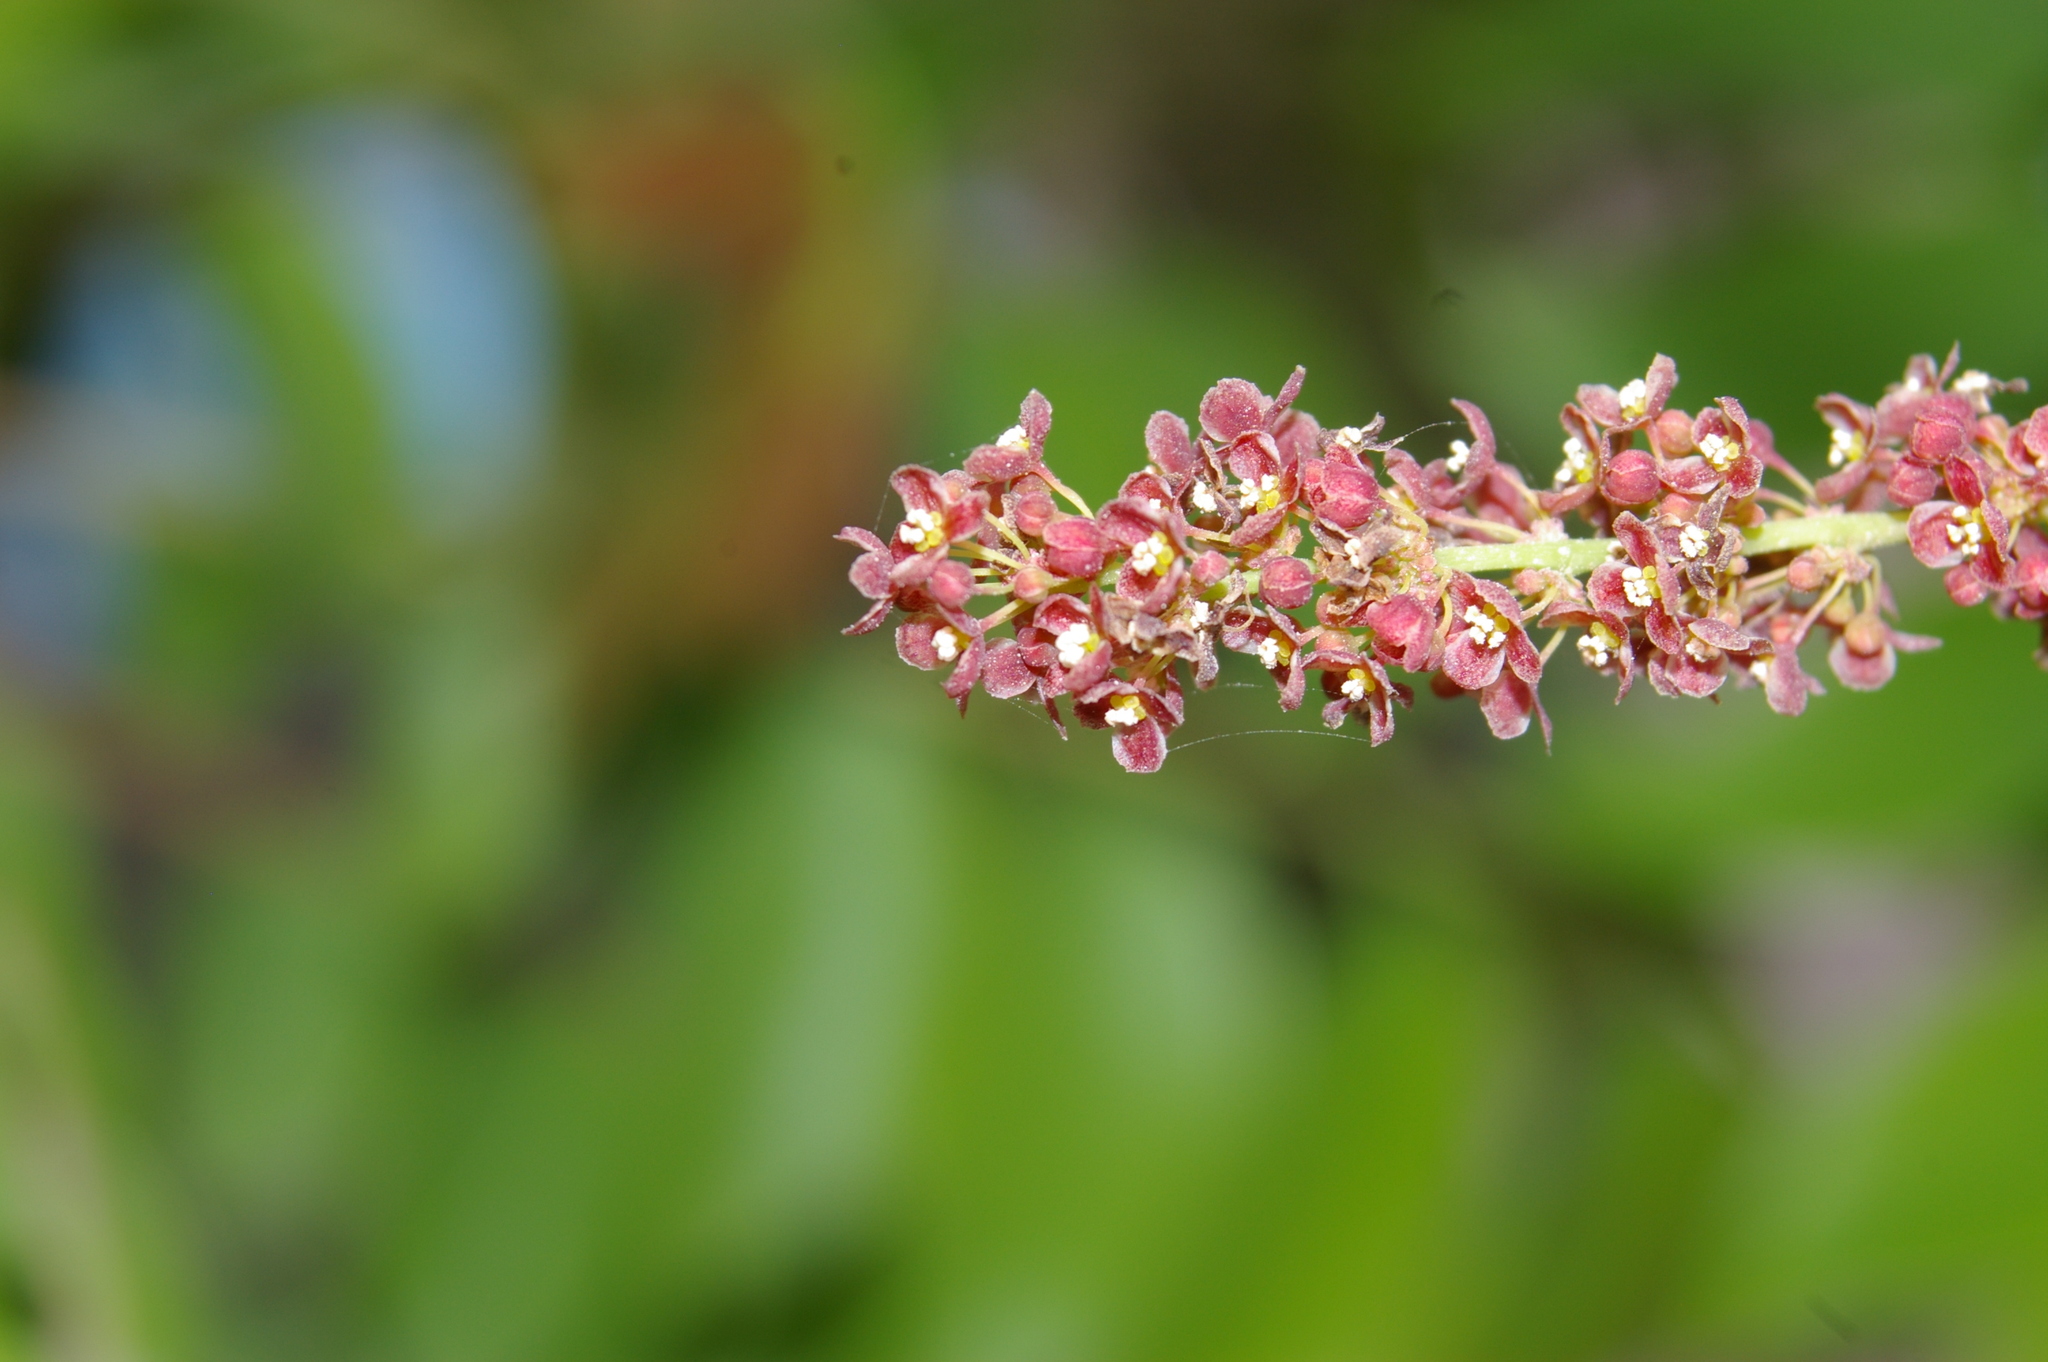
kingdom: Plantae
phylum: Tracheophyta
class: Magnoliopsida
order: Malpighiales
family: Phyllanthaceae
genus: Phyllanthus
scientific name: Phyllanthus acidus
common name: Tahitian gooseberry tree
